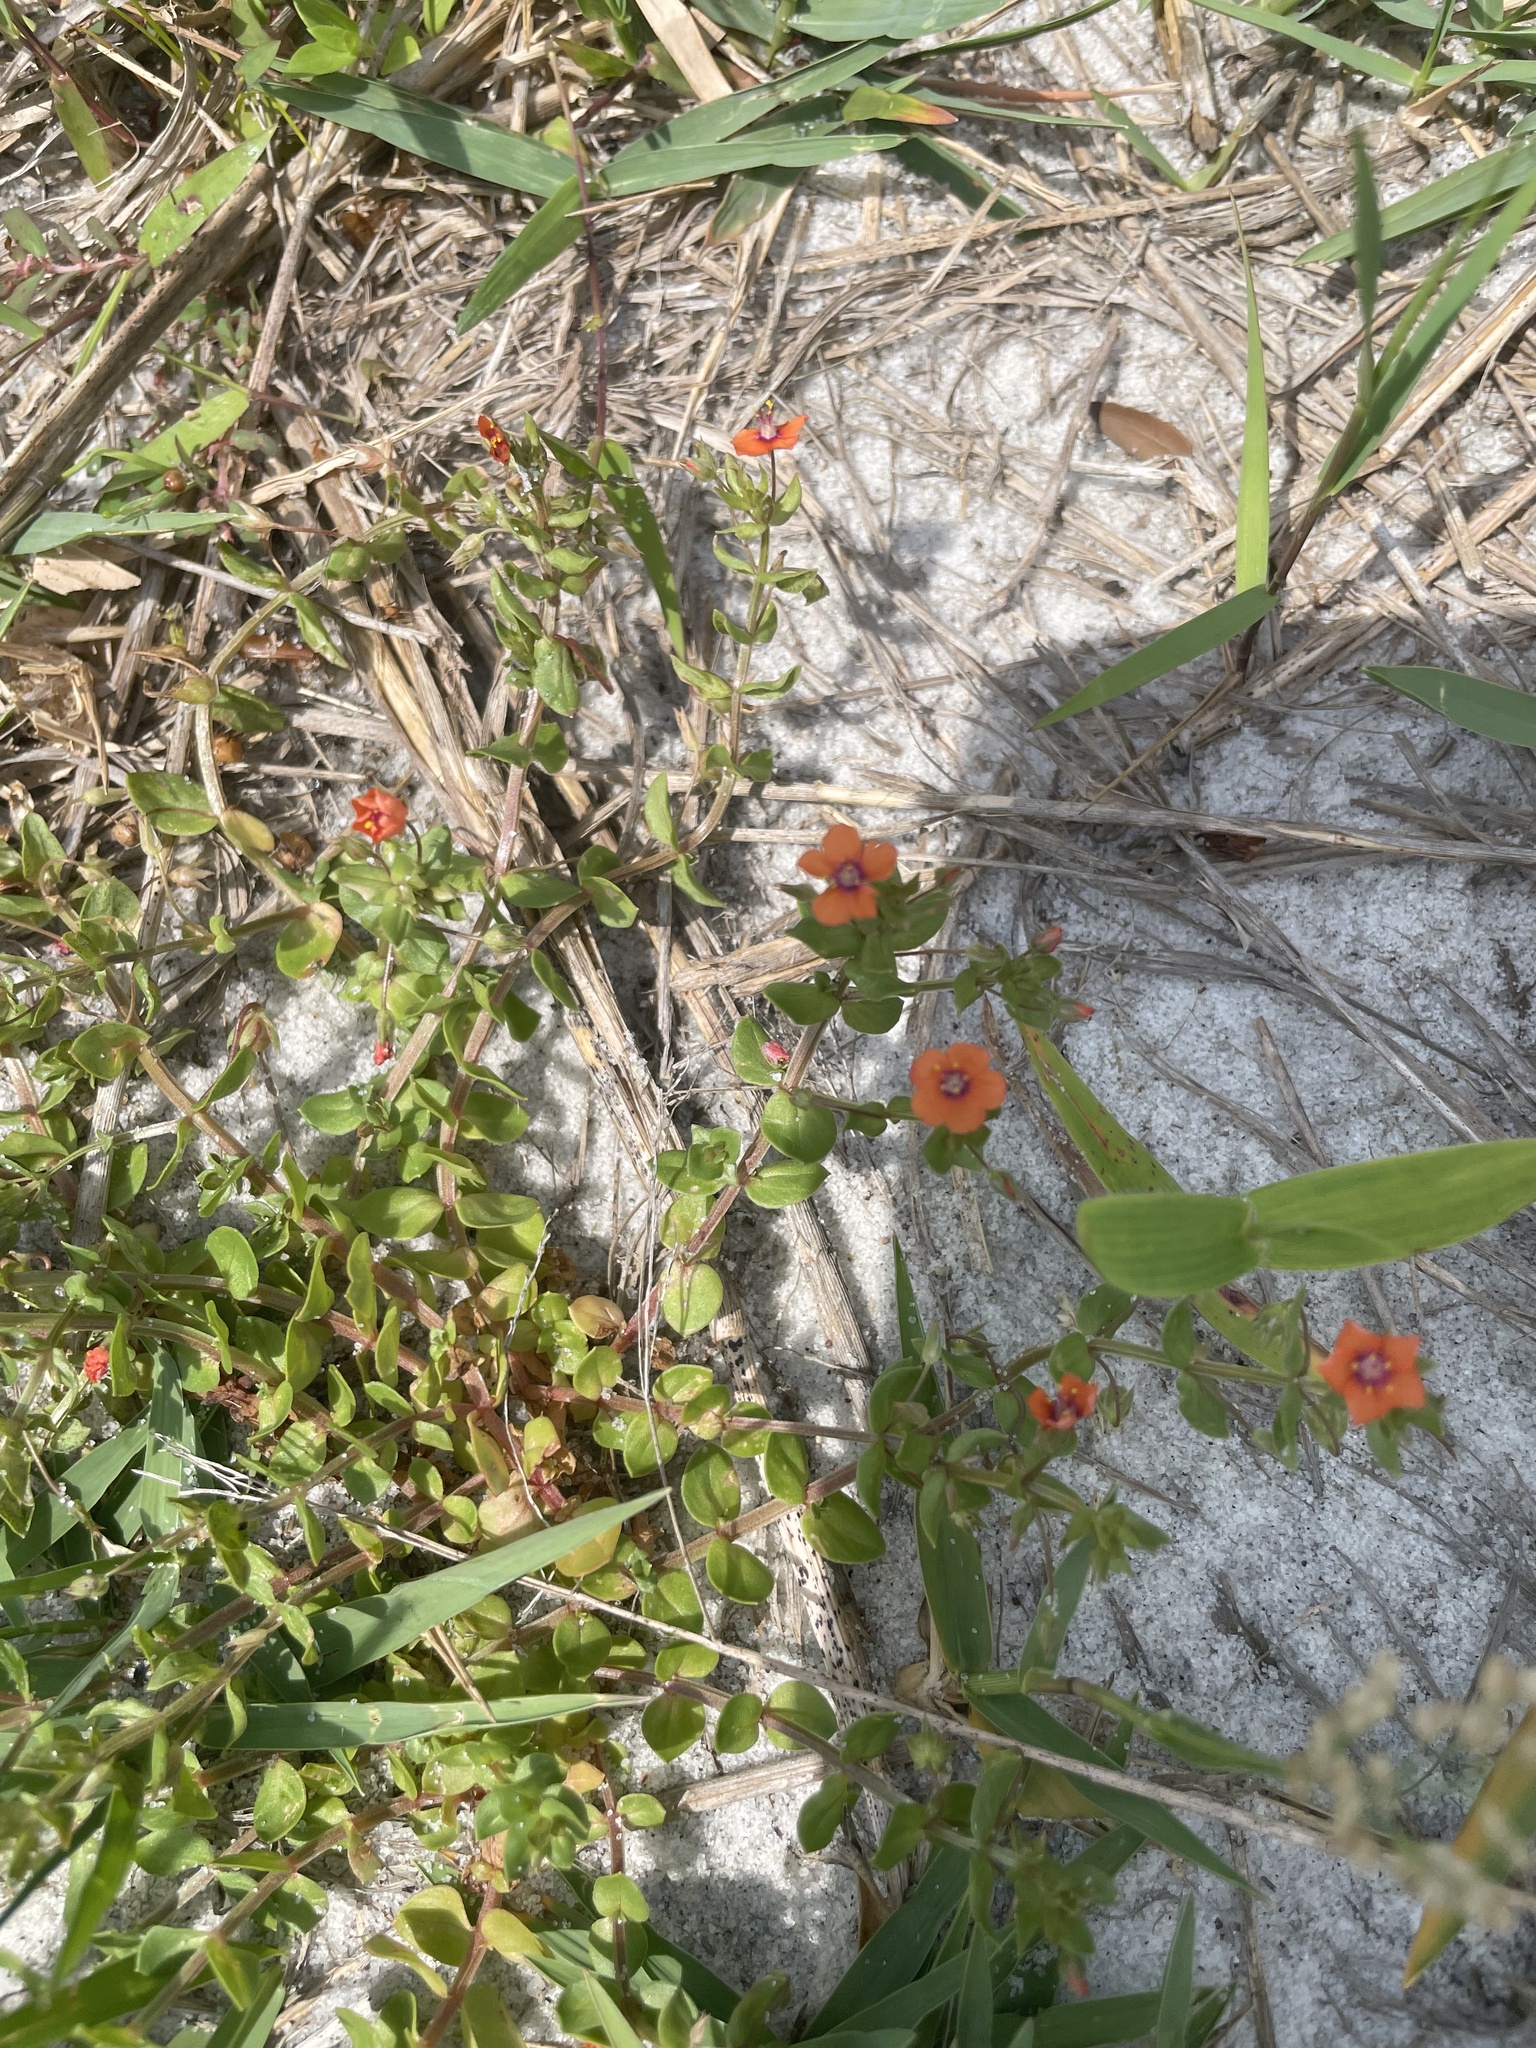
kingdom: Plantae
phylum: Tracheophyta
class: Magnoliopsida
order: Ericales
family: Primulaceae
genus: Lysimachia
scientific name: Lysimachia arvensis
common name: Scarlet pimpernel
